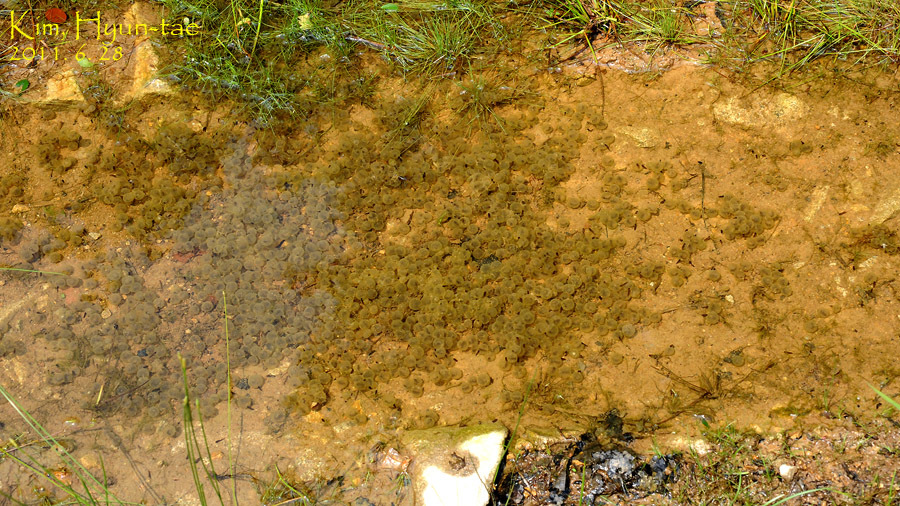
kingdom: Animalia
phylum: Chordata
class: Amphibia
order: Anura
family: Bombinatoridae
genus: Bombina
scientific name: Bombina orientalis
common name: Oriental firebelly toad
